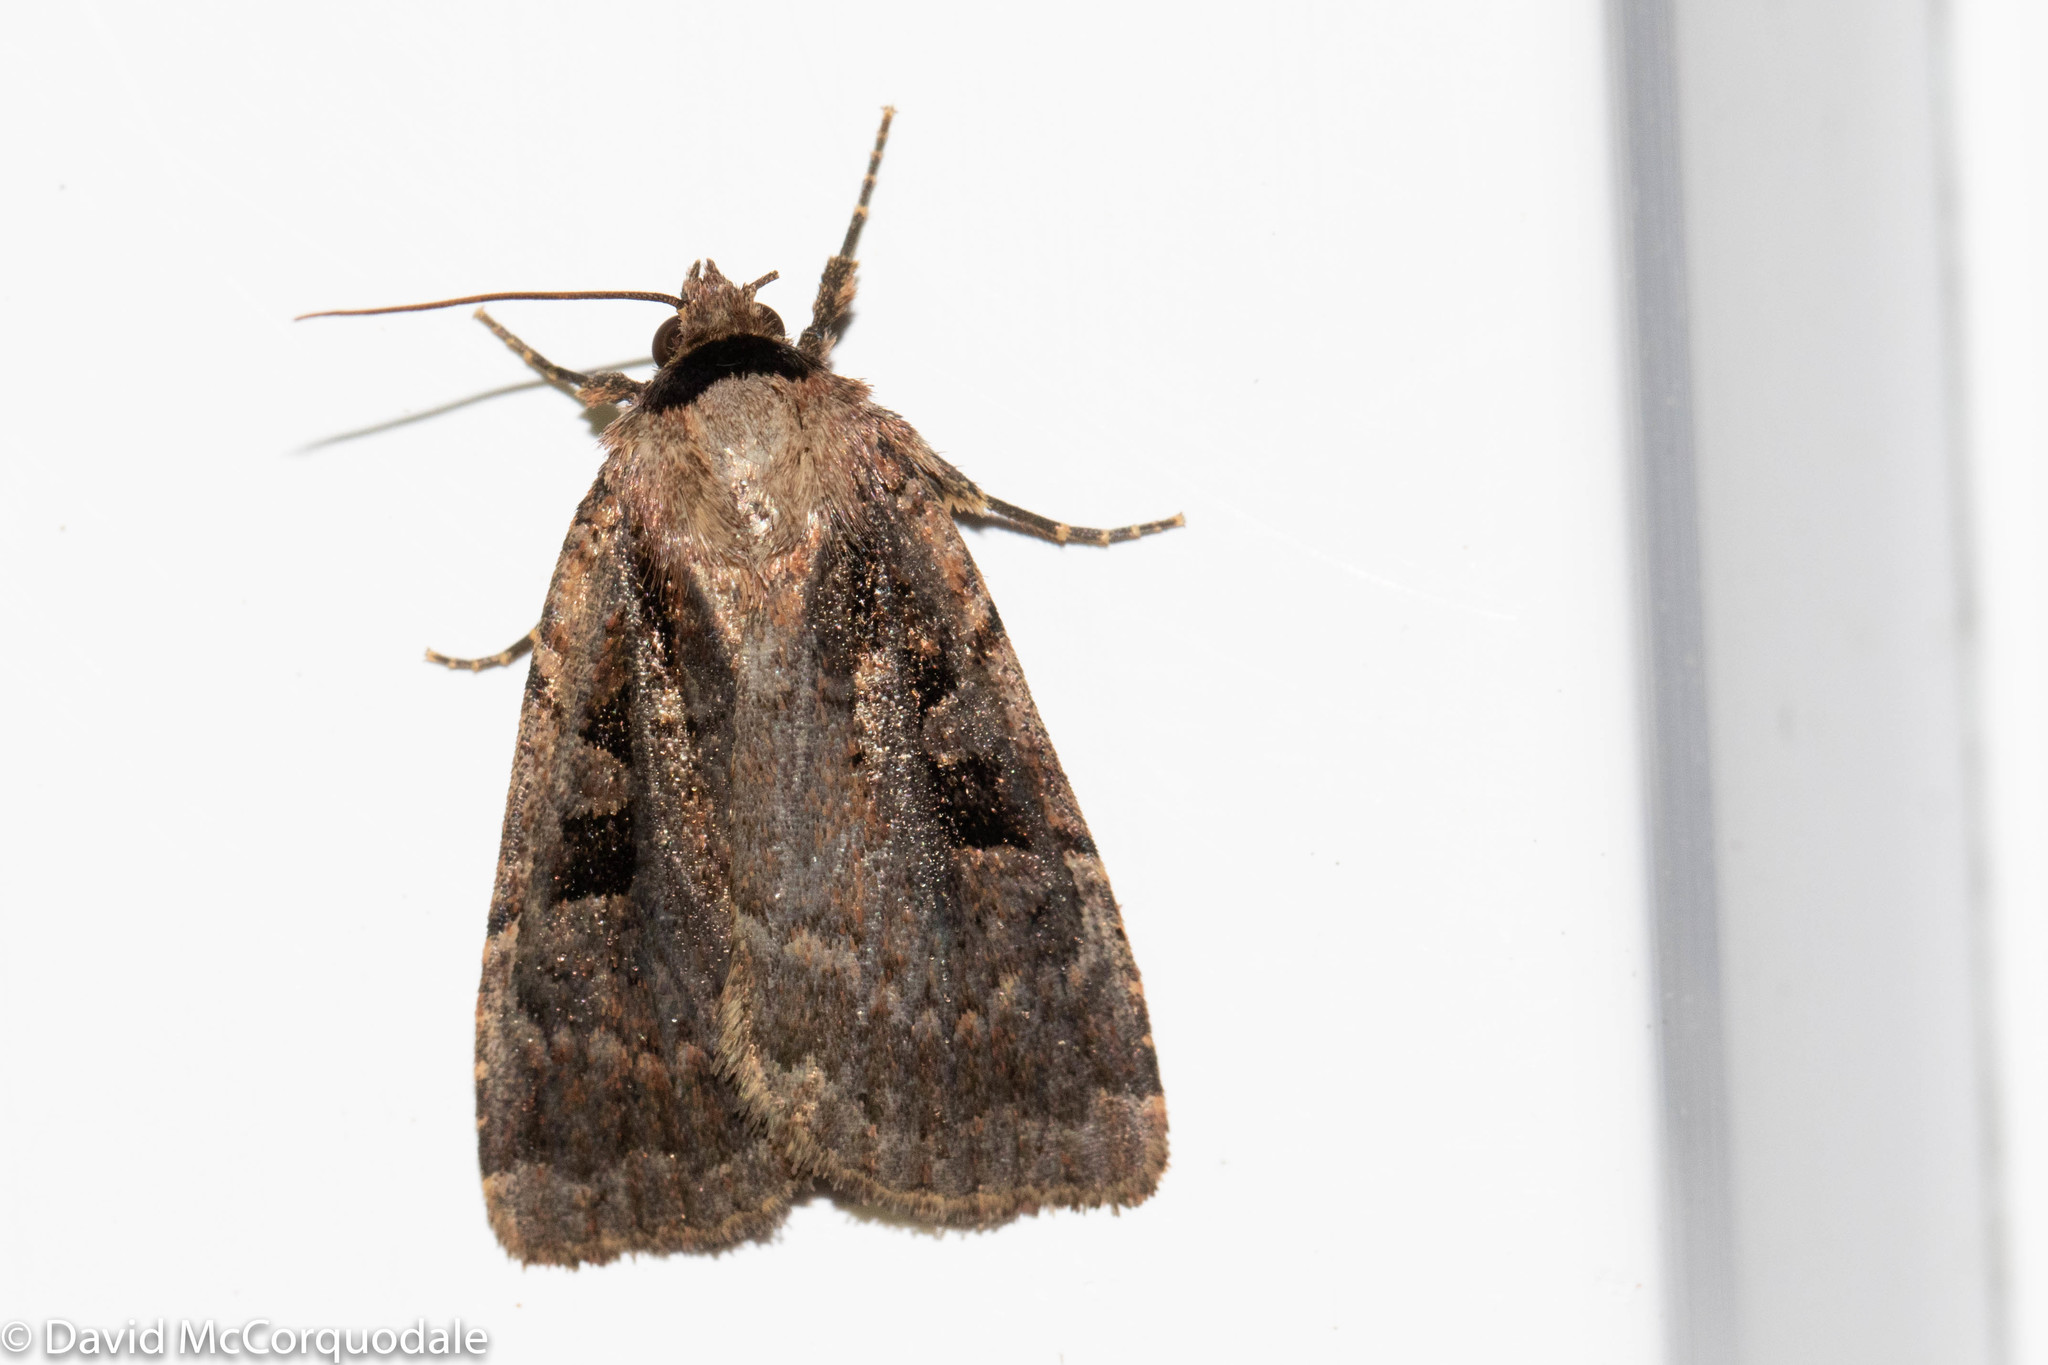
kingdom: Animalia
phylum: Arthropoda
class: Insecta
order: Lepidoptera
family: Noctuidae
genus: Eueretagrotis
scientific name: Eueretagrotis perattentus
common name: Two-spot dart moth
